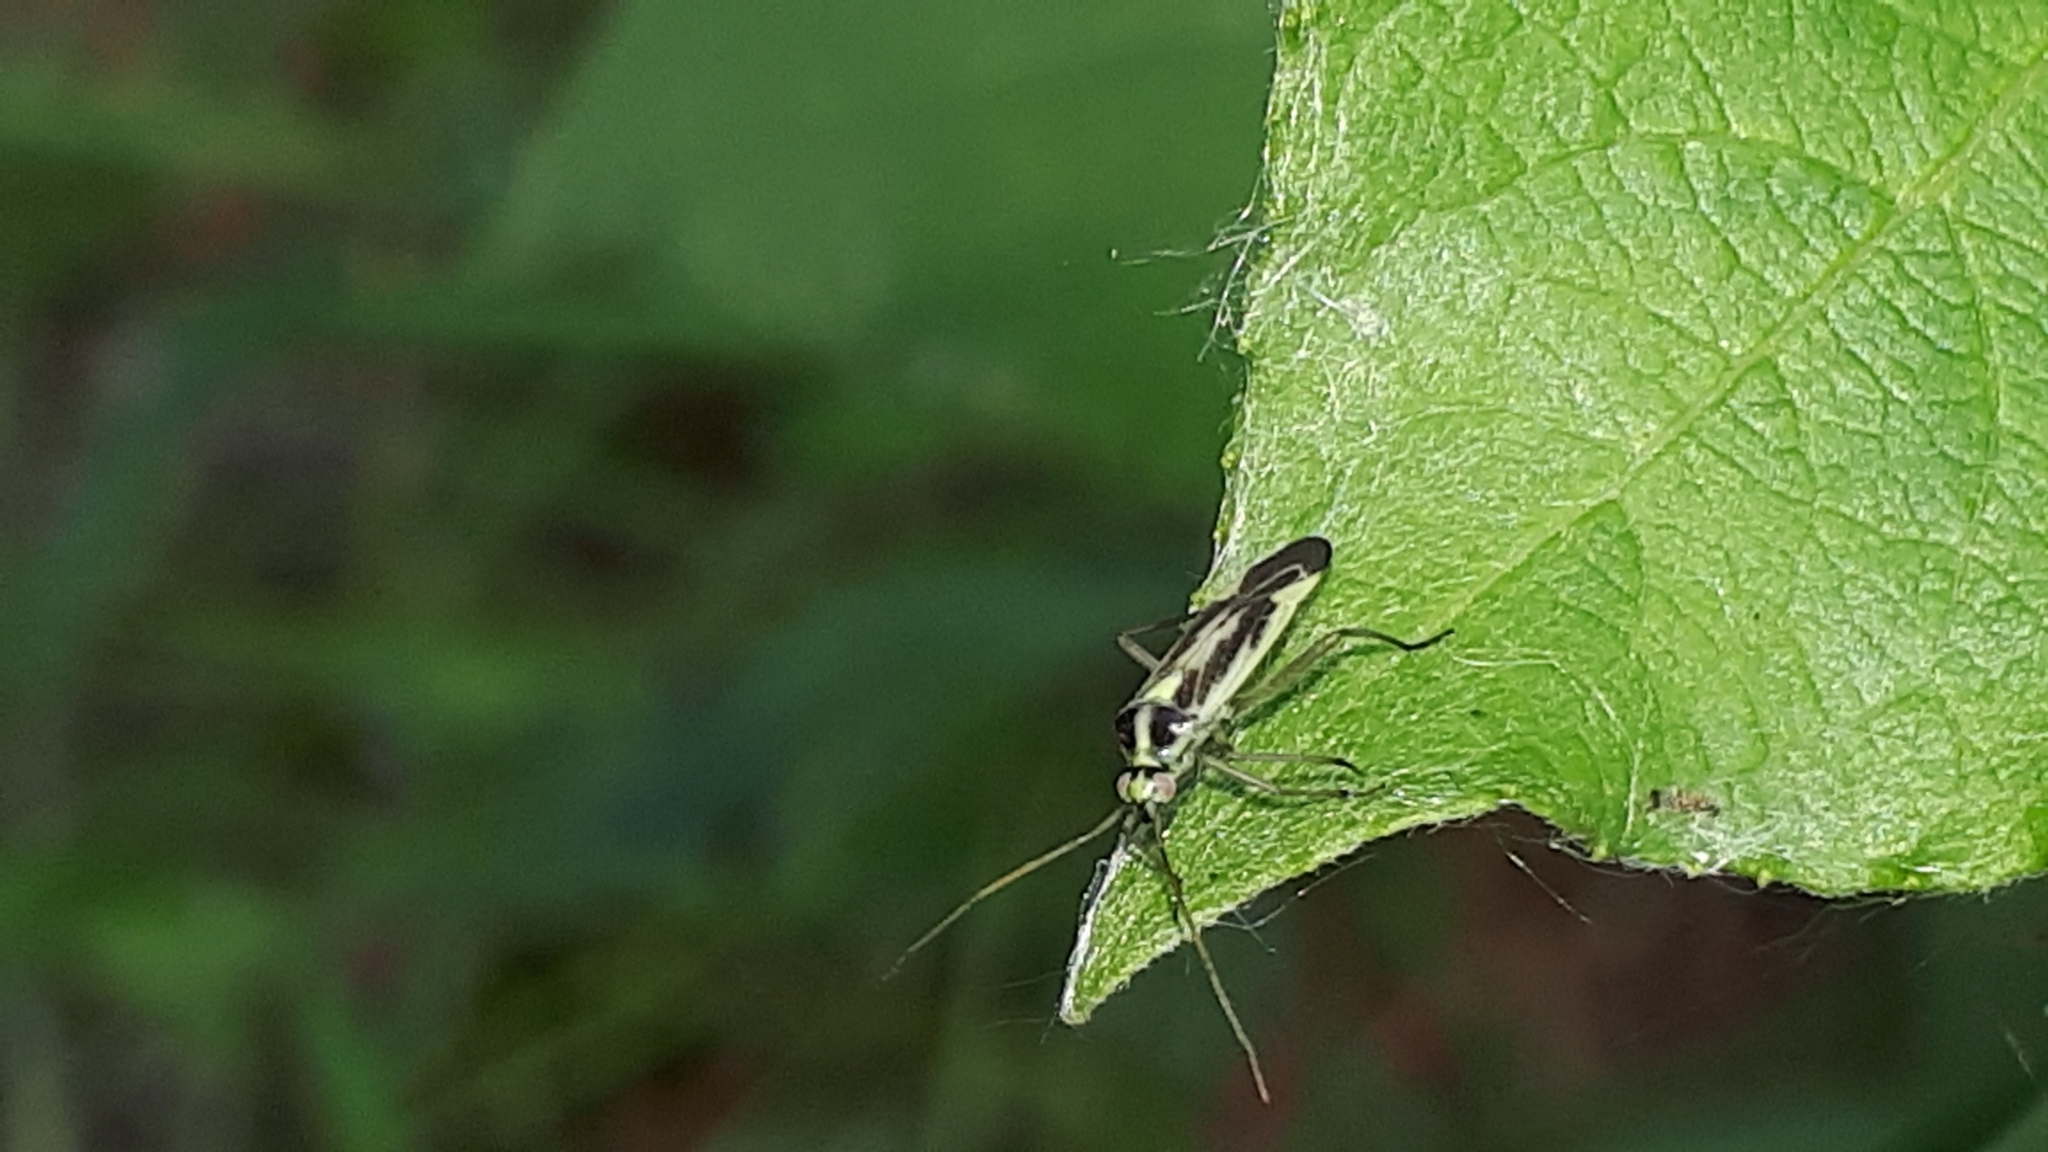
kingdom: Animalia
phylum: Arthropoda
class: Insecta
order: Hemiptera
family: Miridae
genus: Stenotus
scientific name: Stenotus binotatus
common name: Plant bug
